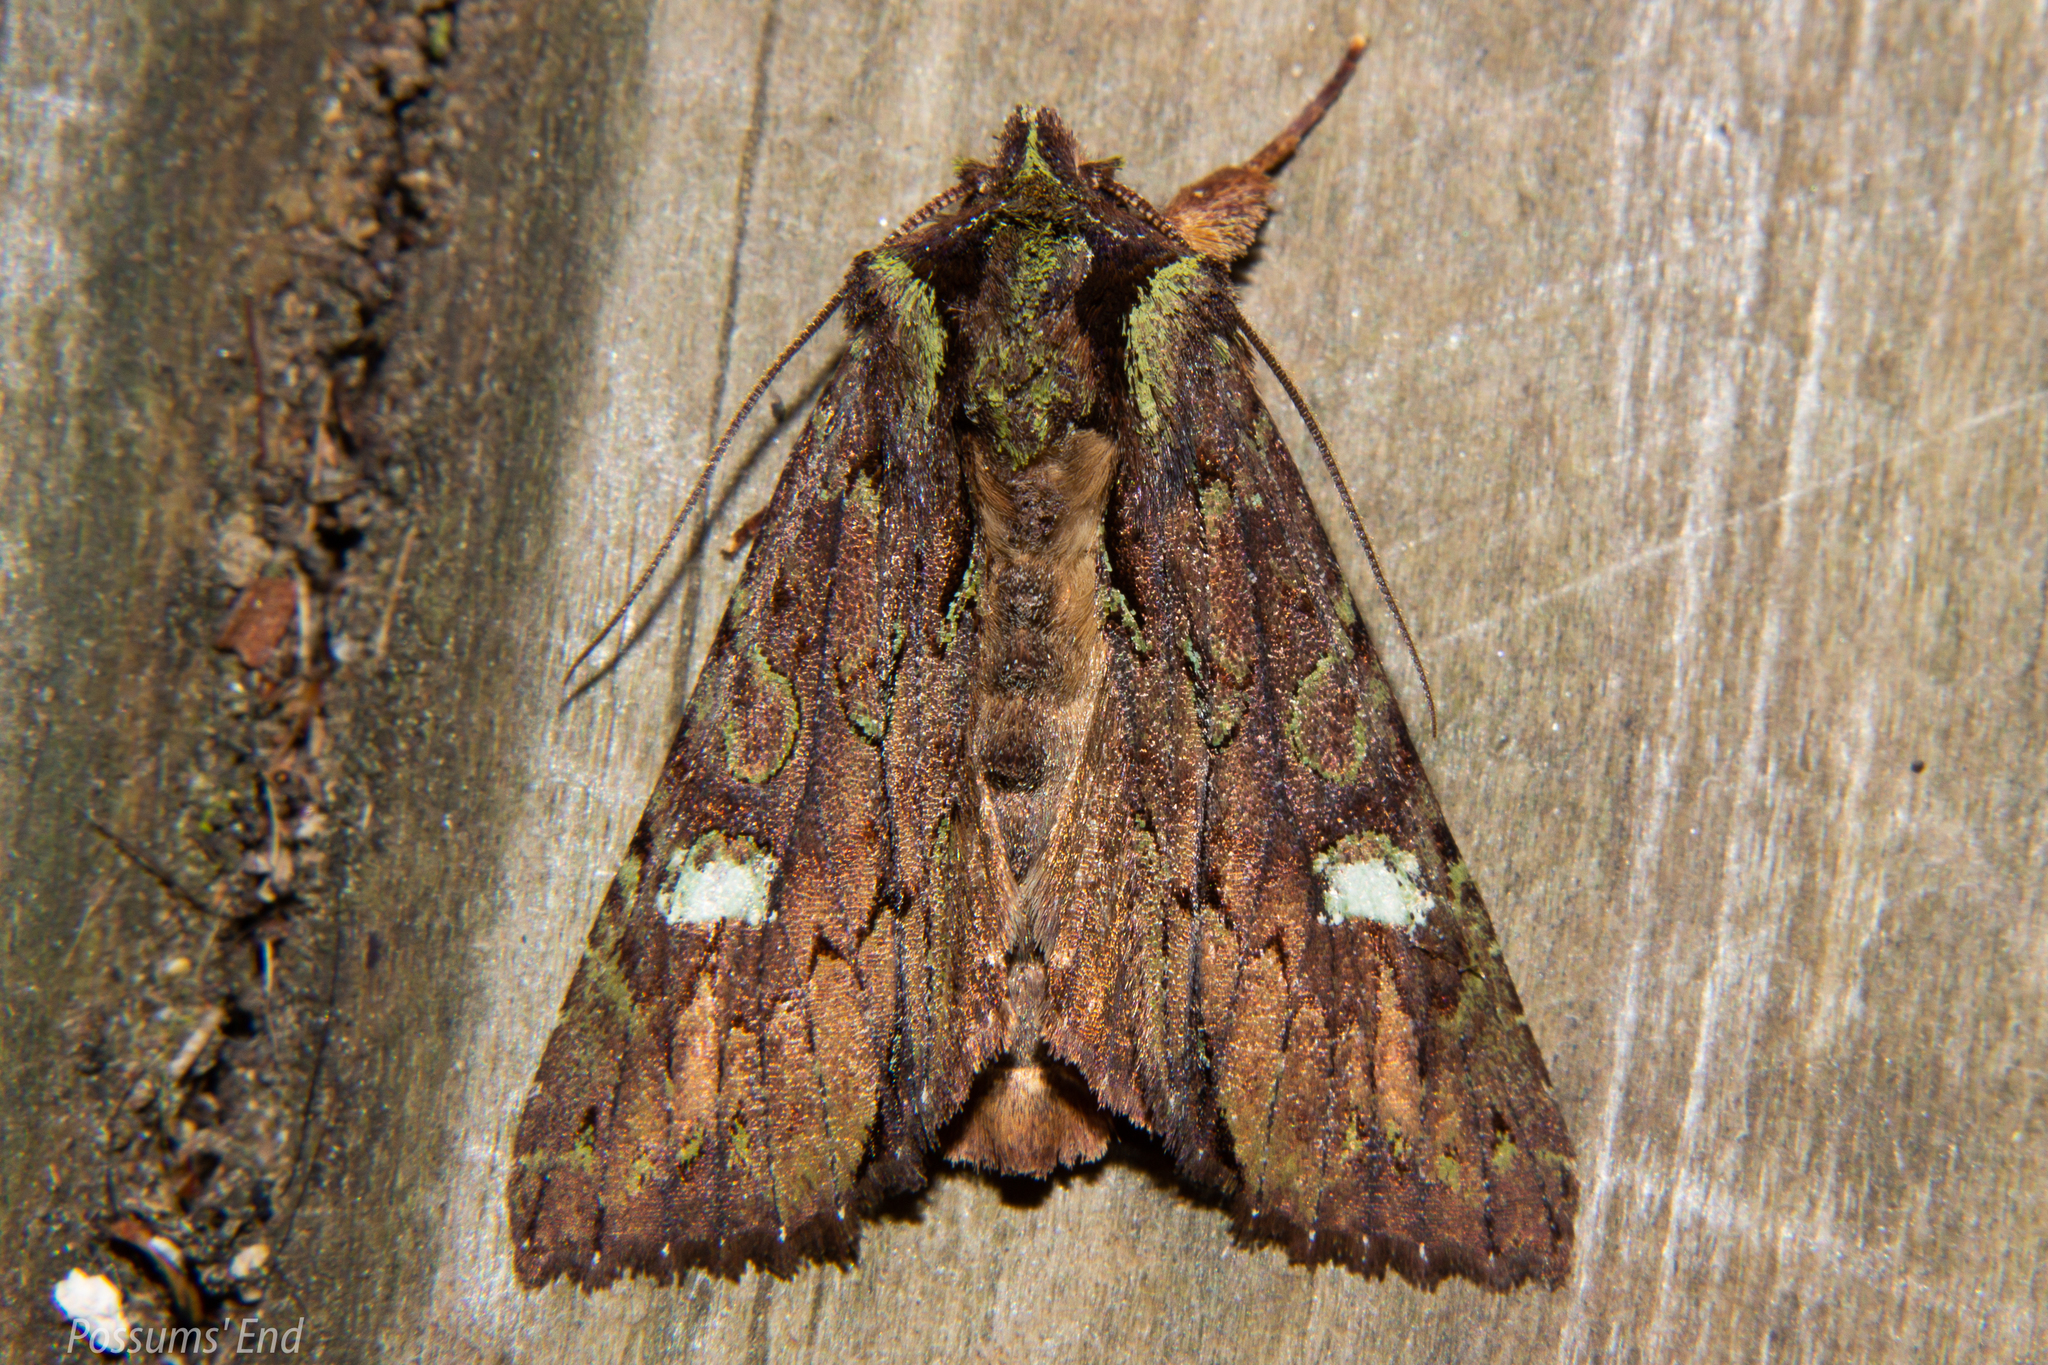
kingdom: Animalia
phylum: Arthropoda
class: Insecta
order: Lepidoptera
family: Noctuidae
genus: Meterana
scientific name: Meterana diatmeta
